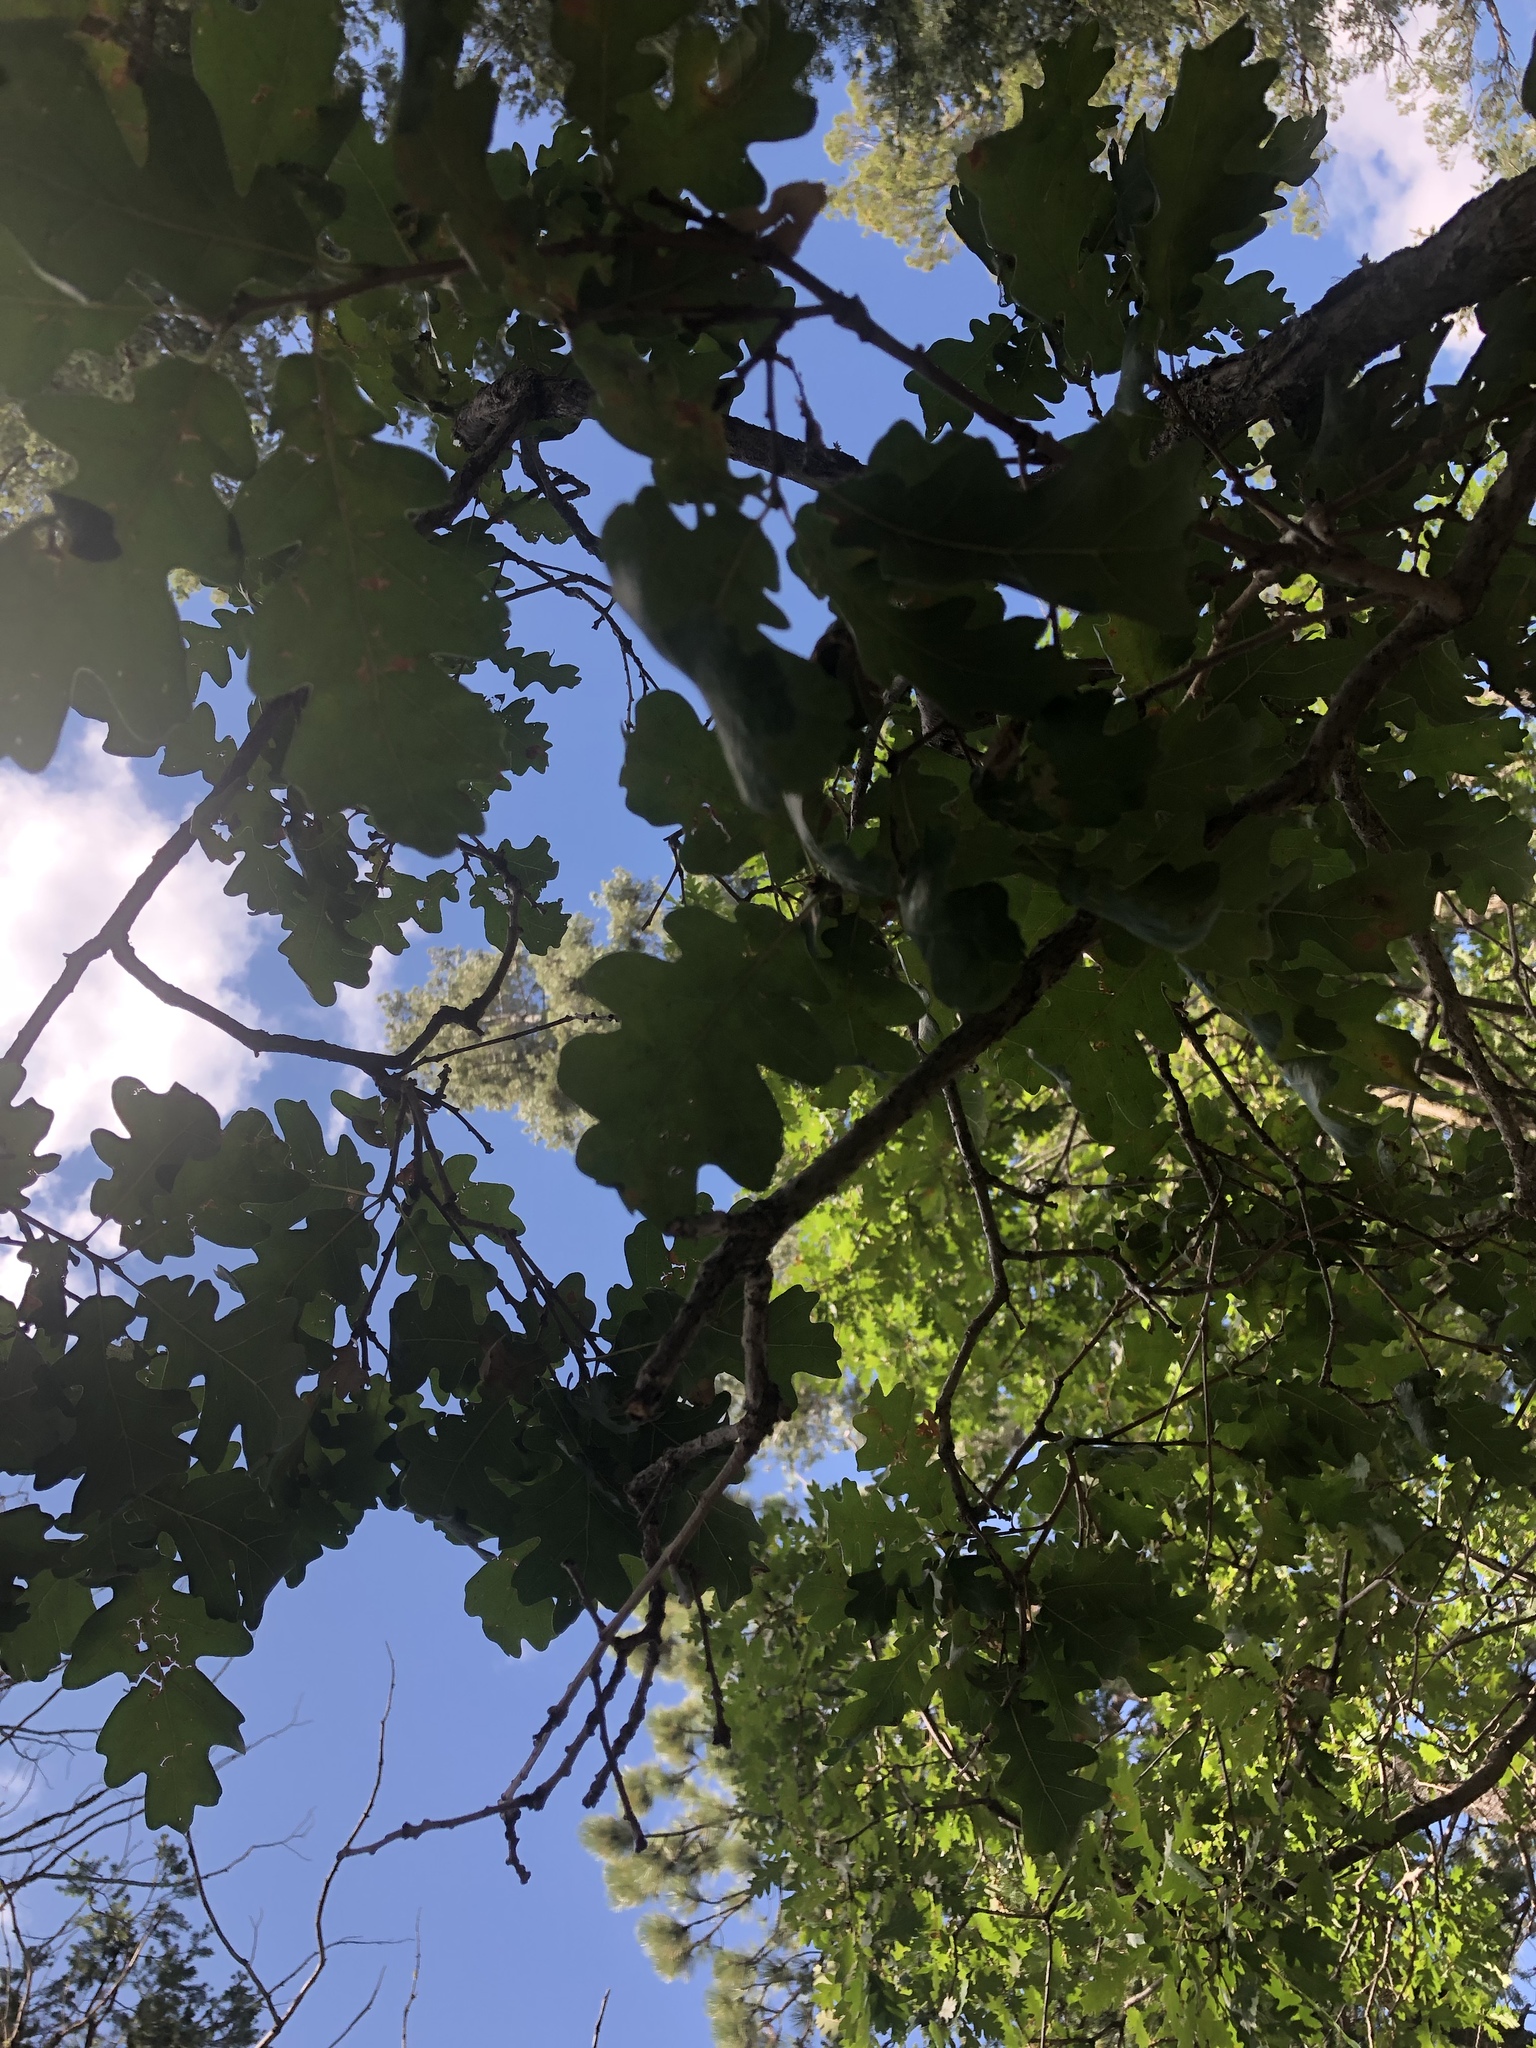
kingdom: Plantae
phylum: Tracheophyta
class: Magnoliopsida
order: Fagales
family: Fagaceae
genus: Quercus
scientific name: Quercus gambelii
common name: Gambel oak
